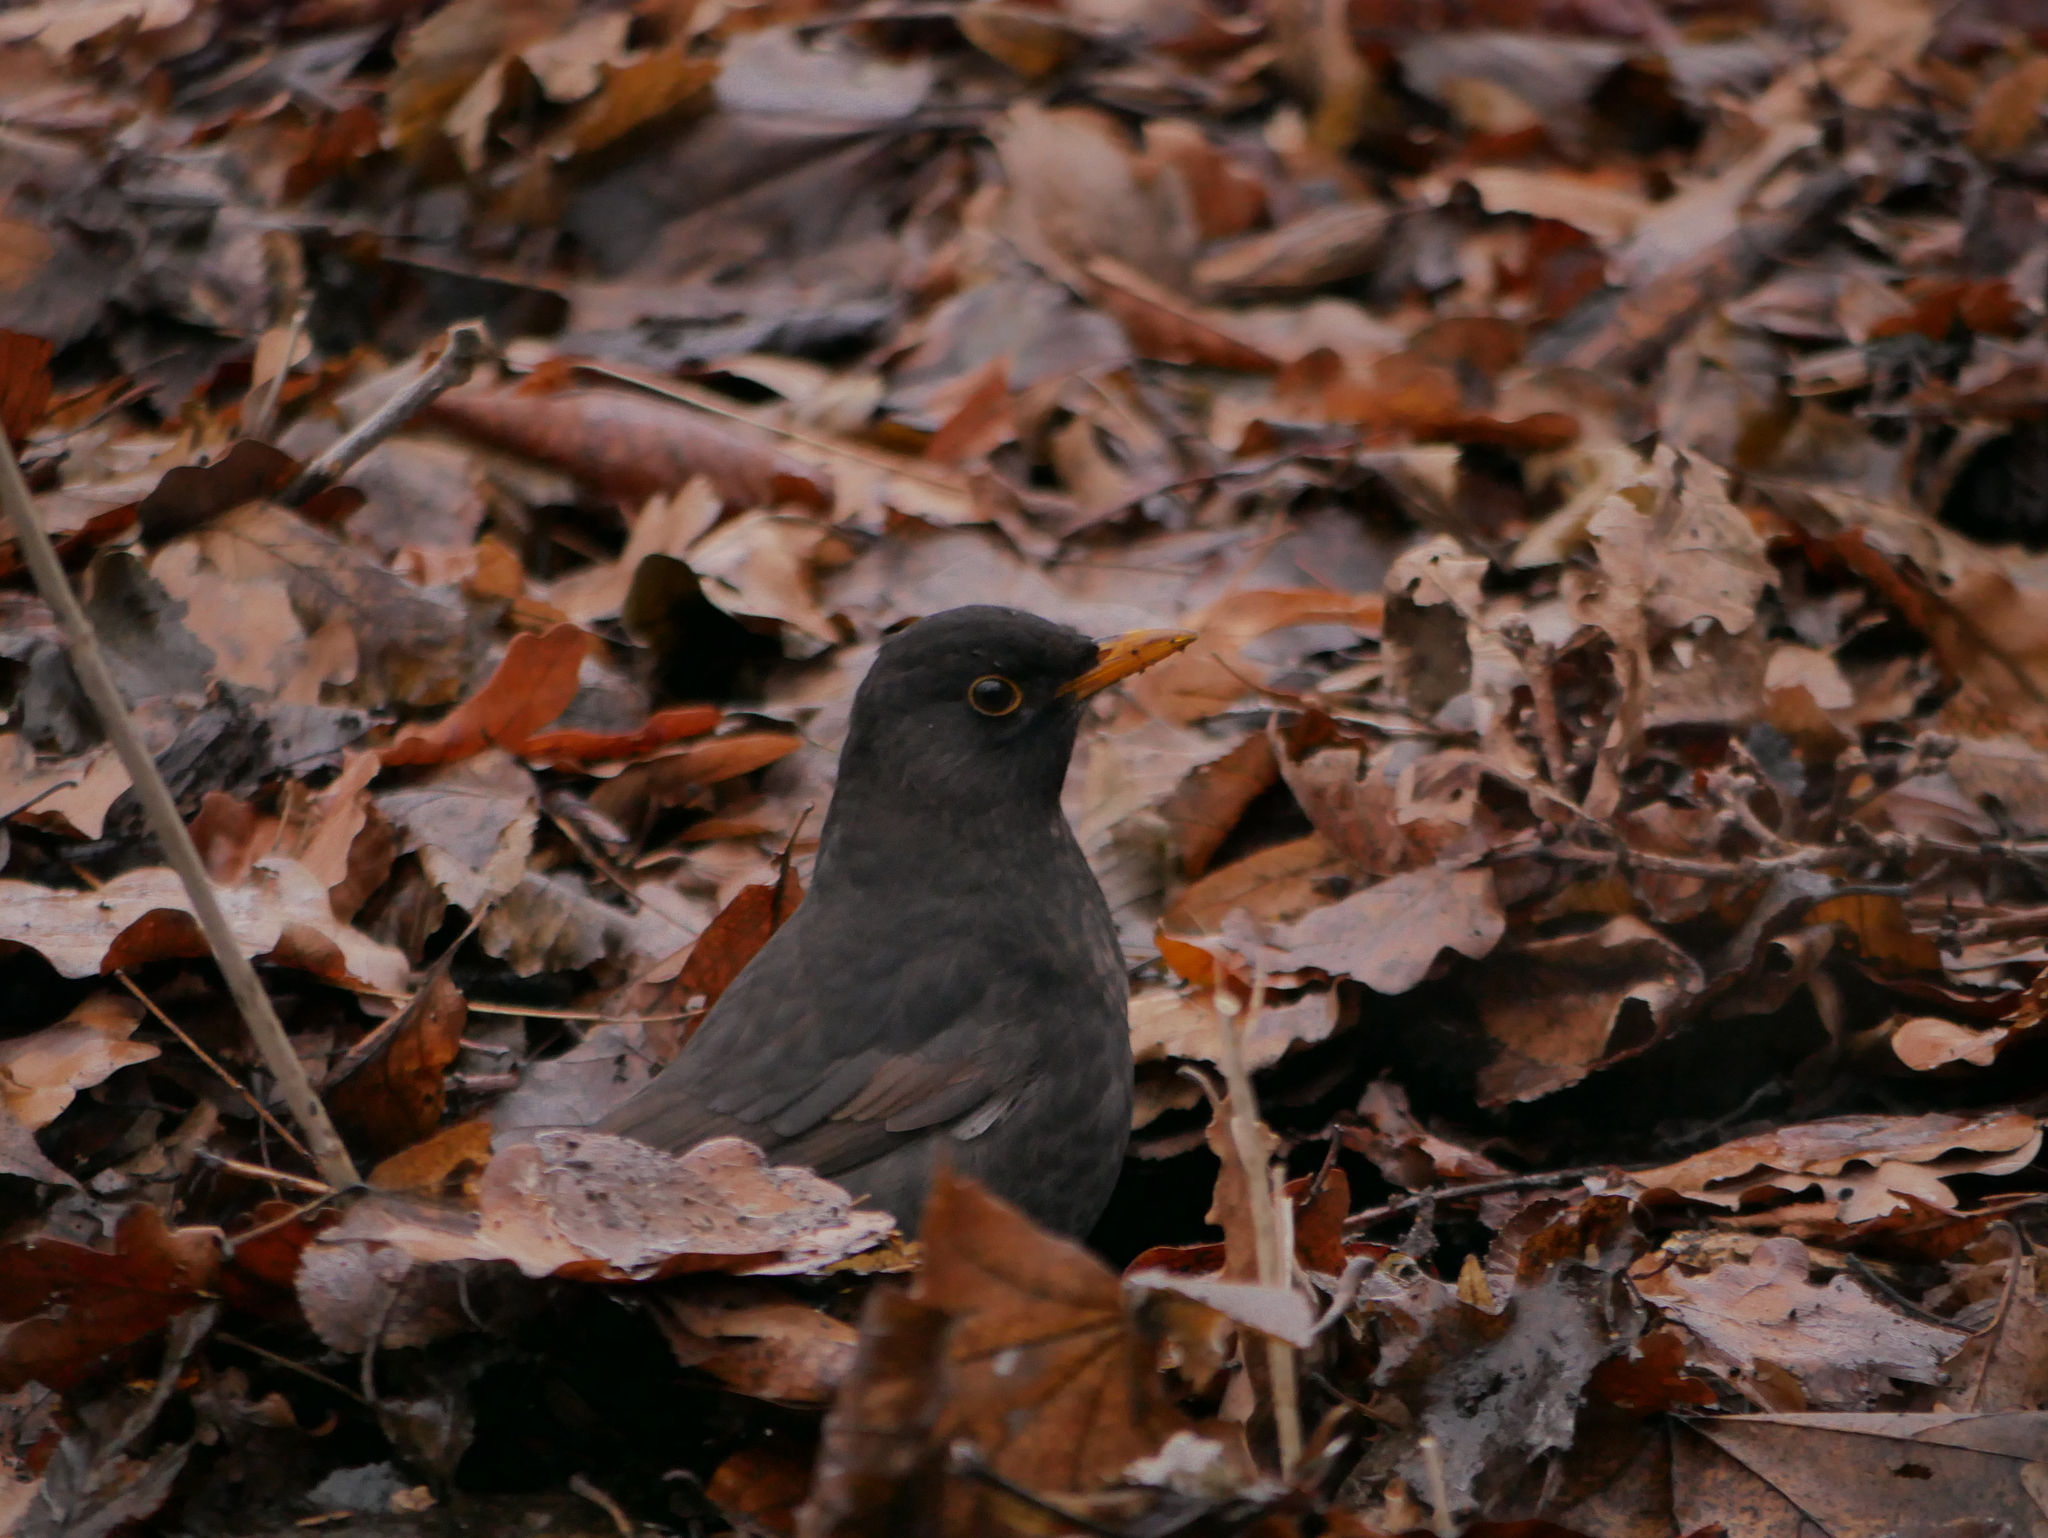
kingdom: Animalia
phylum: Chordata
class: Aves
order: Passeriformes
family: Turdidae
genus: Turdus
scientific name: Turdus merula
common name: Common blackbird
